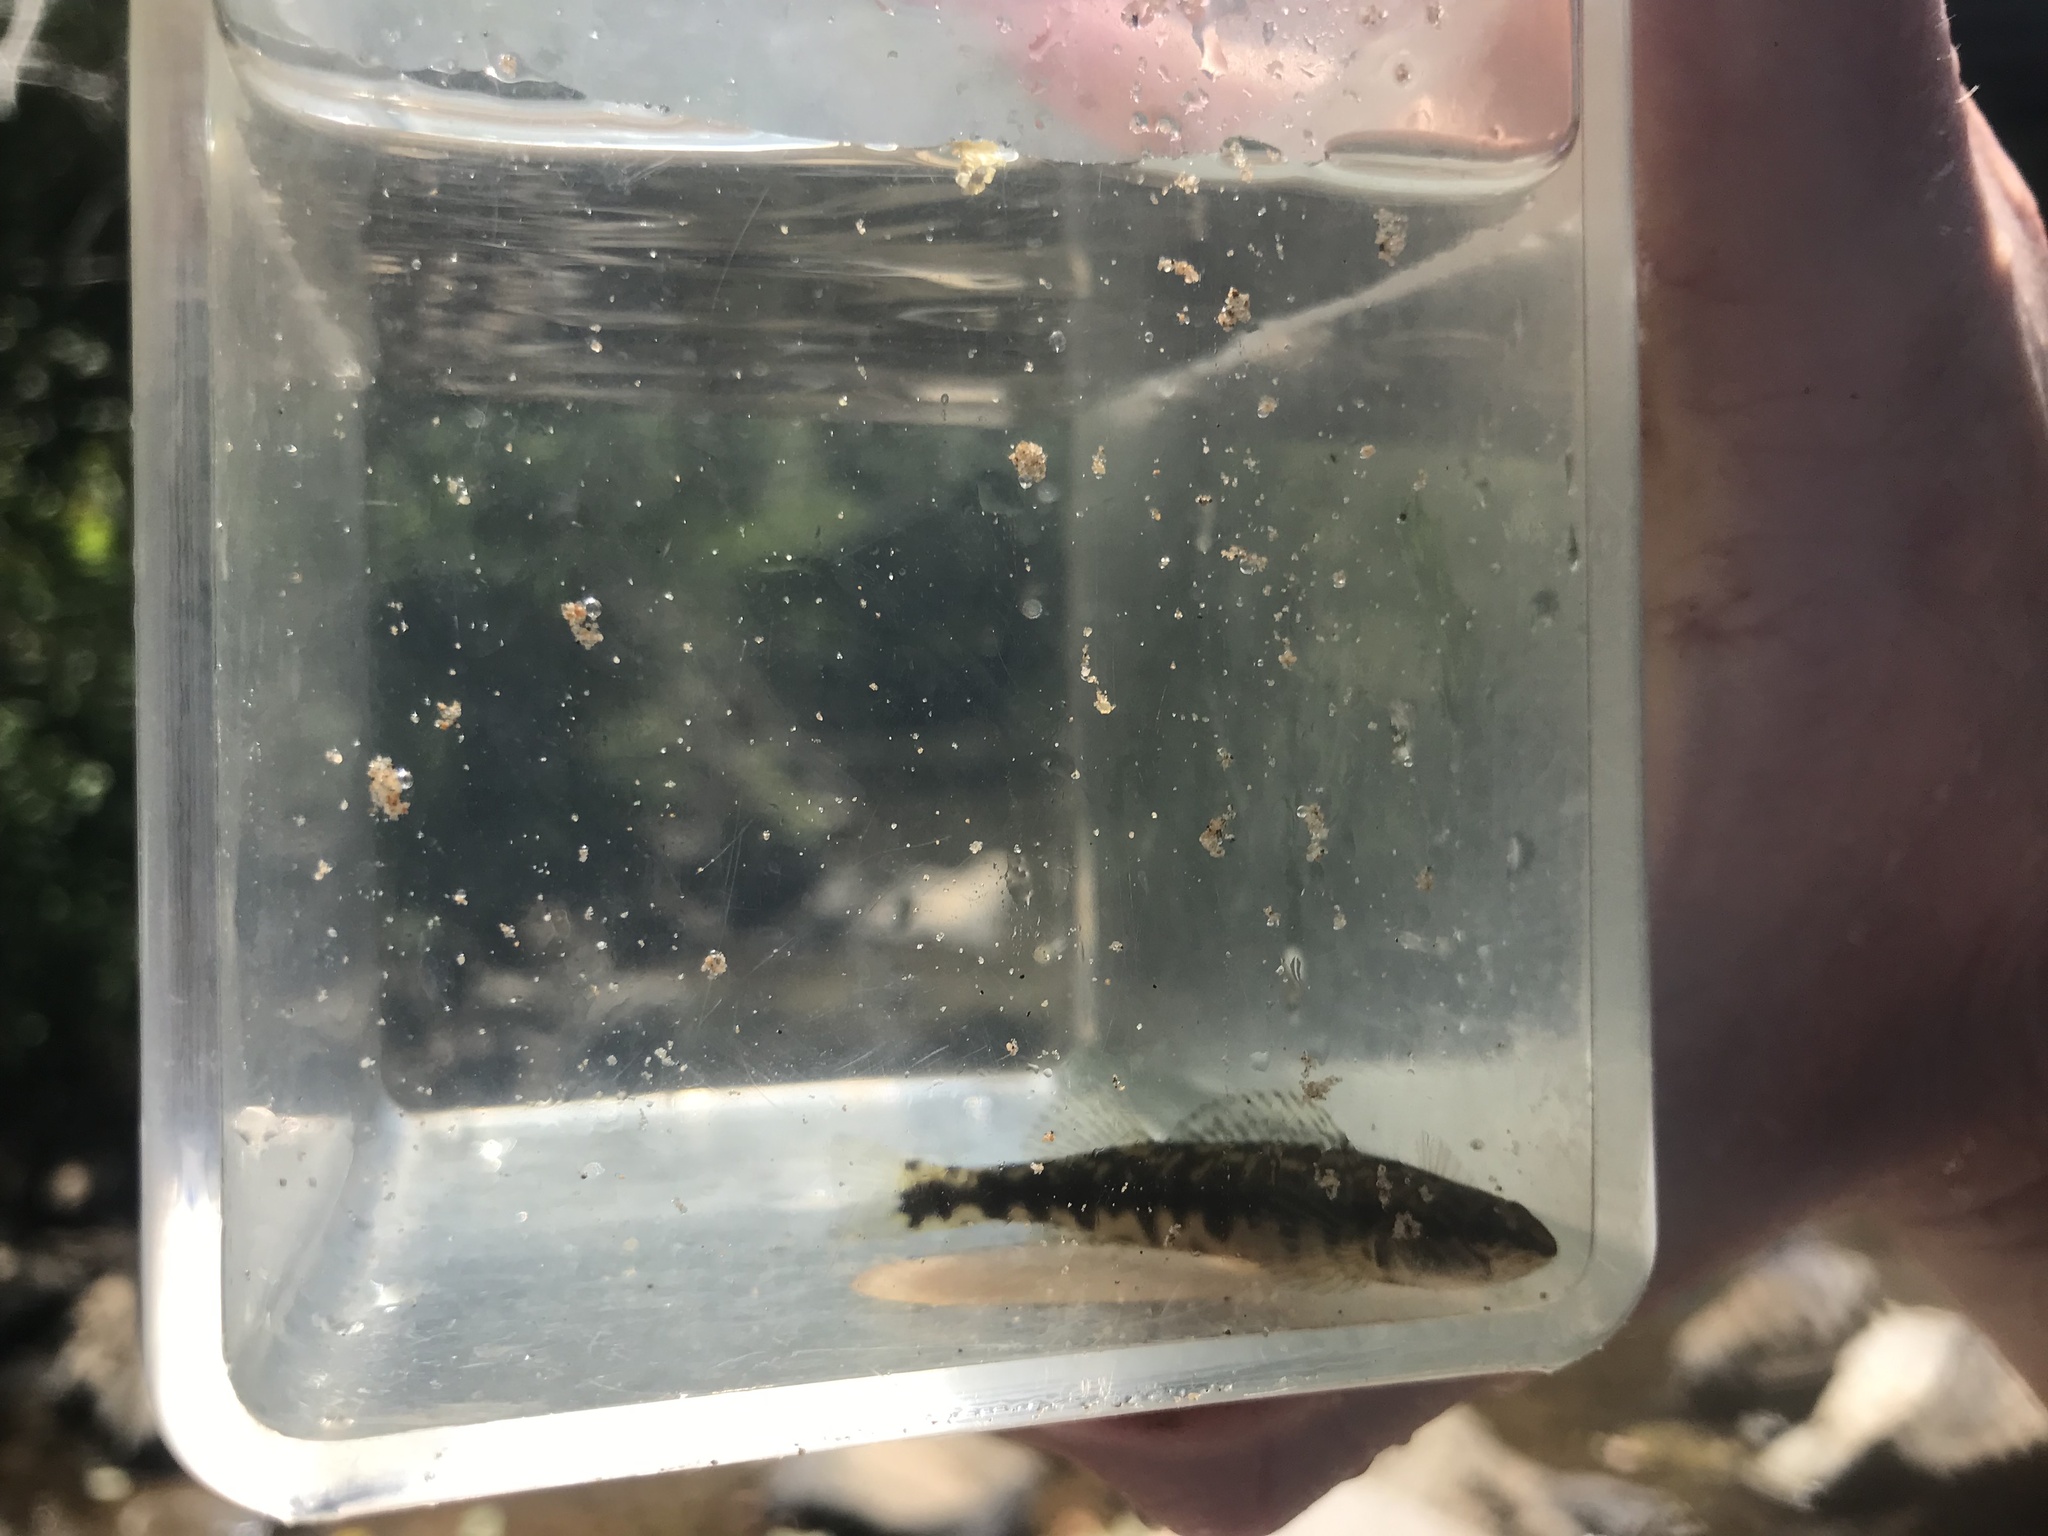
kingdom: Animalia
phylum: Chordata
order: Perciformes
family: Percidae
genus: Percina
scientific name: Percina nigrofasciata
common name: Blackbanded darter
